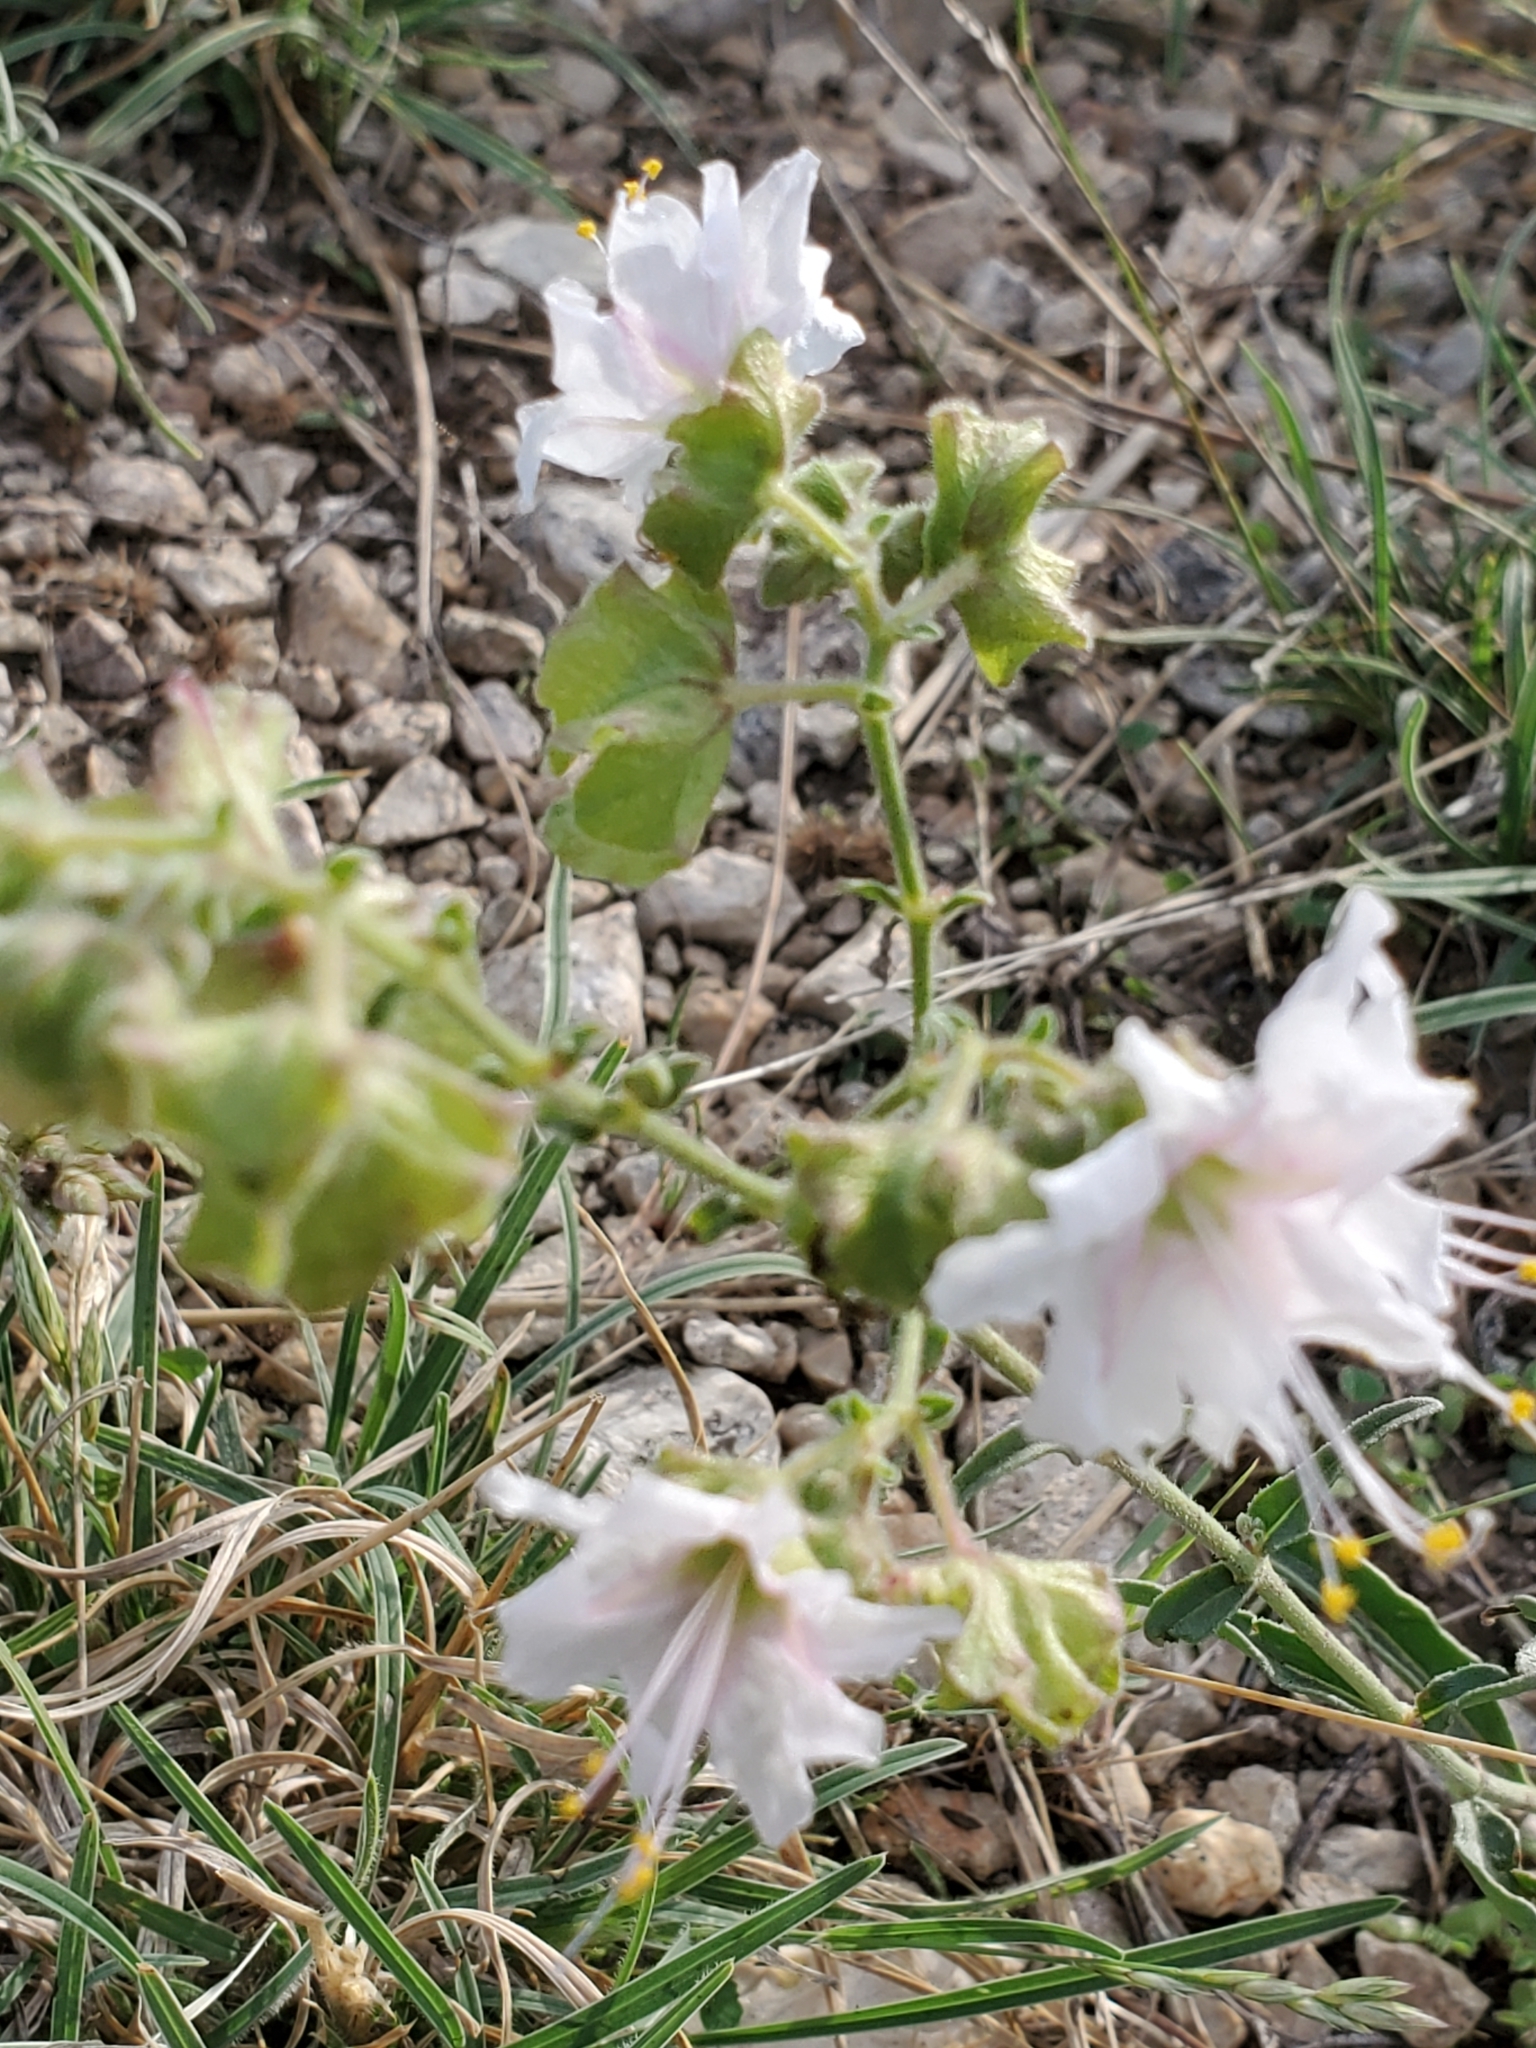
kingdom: Plantae
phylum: Tracheophyta
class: Magnoliopsida
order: Caryophyllales
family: Nyctaginaceae
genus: Mirabilis
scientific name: Mirabilis nyctaginea
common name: Umbrella wort
